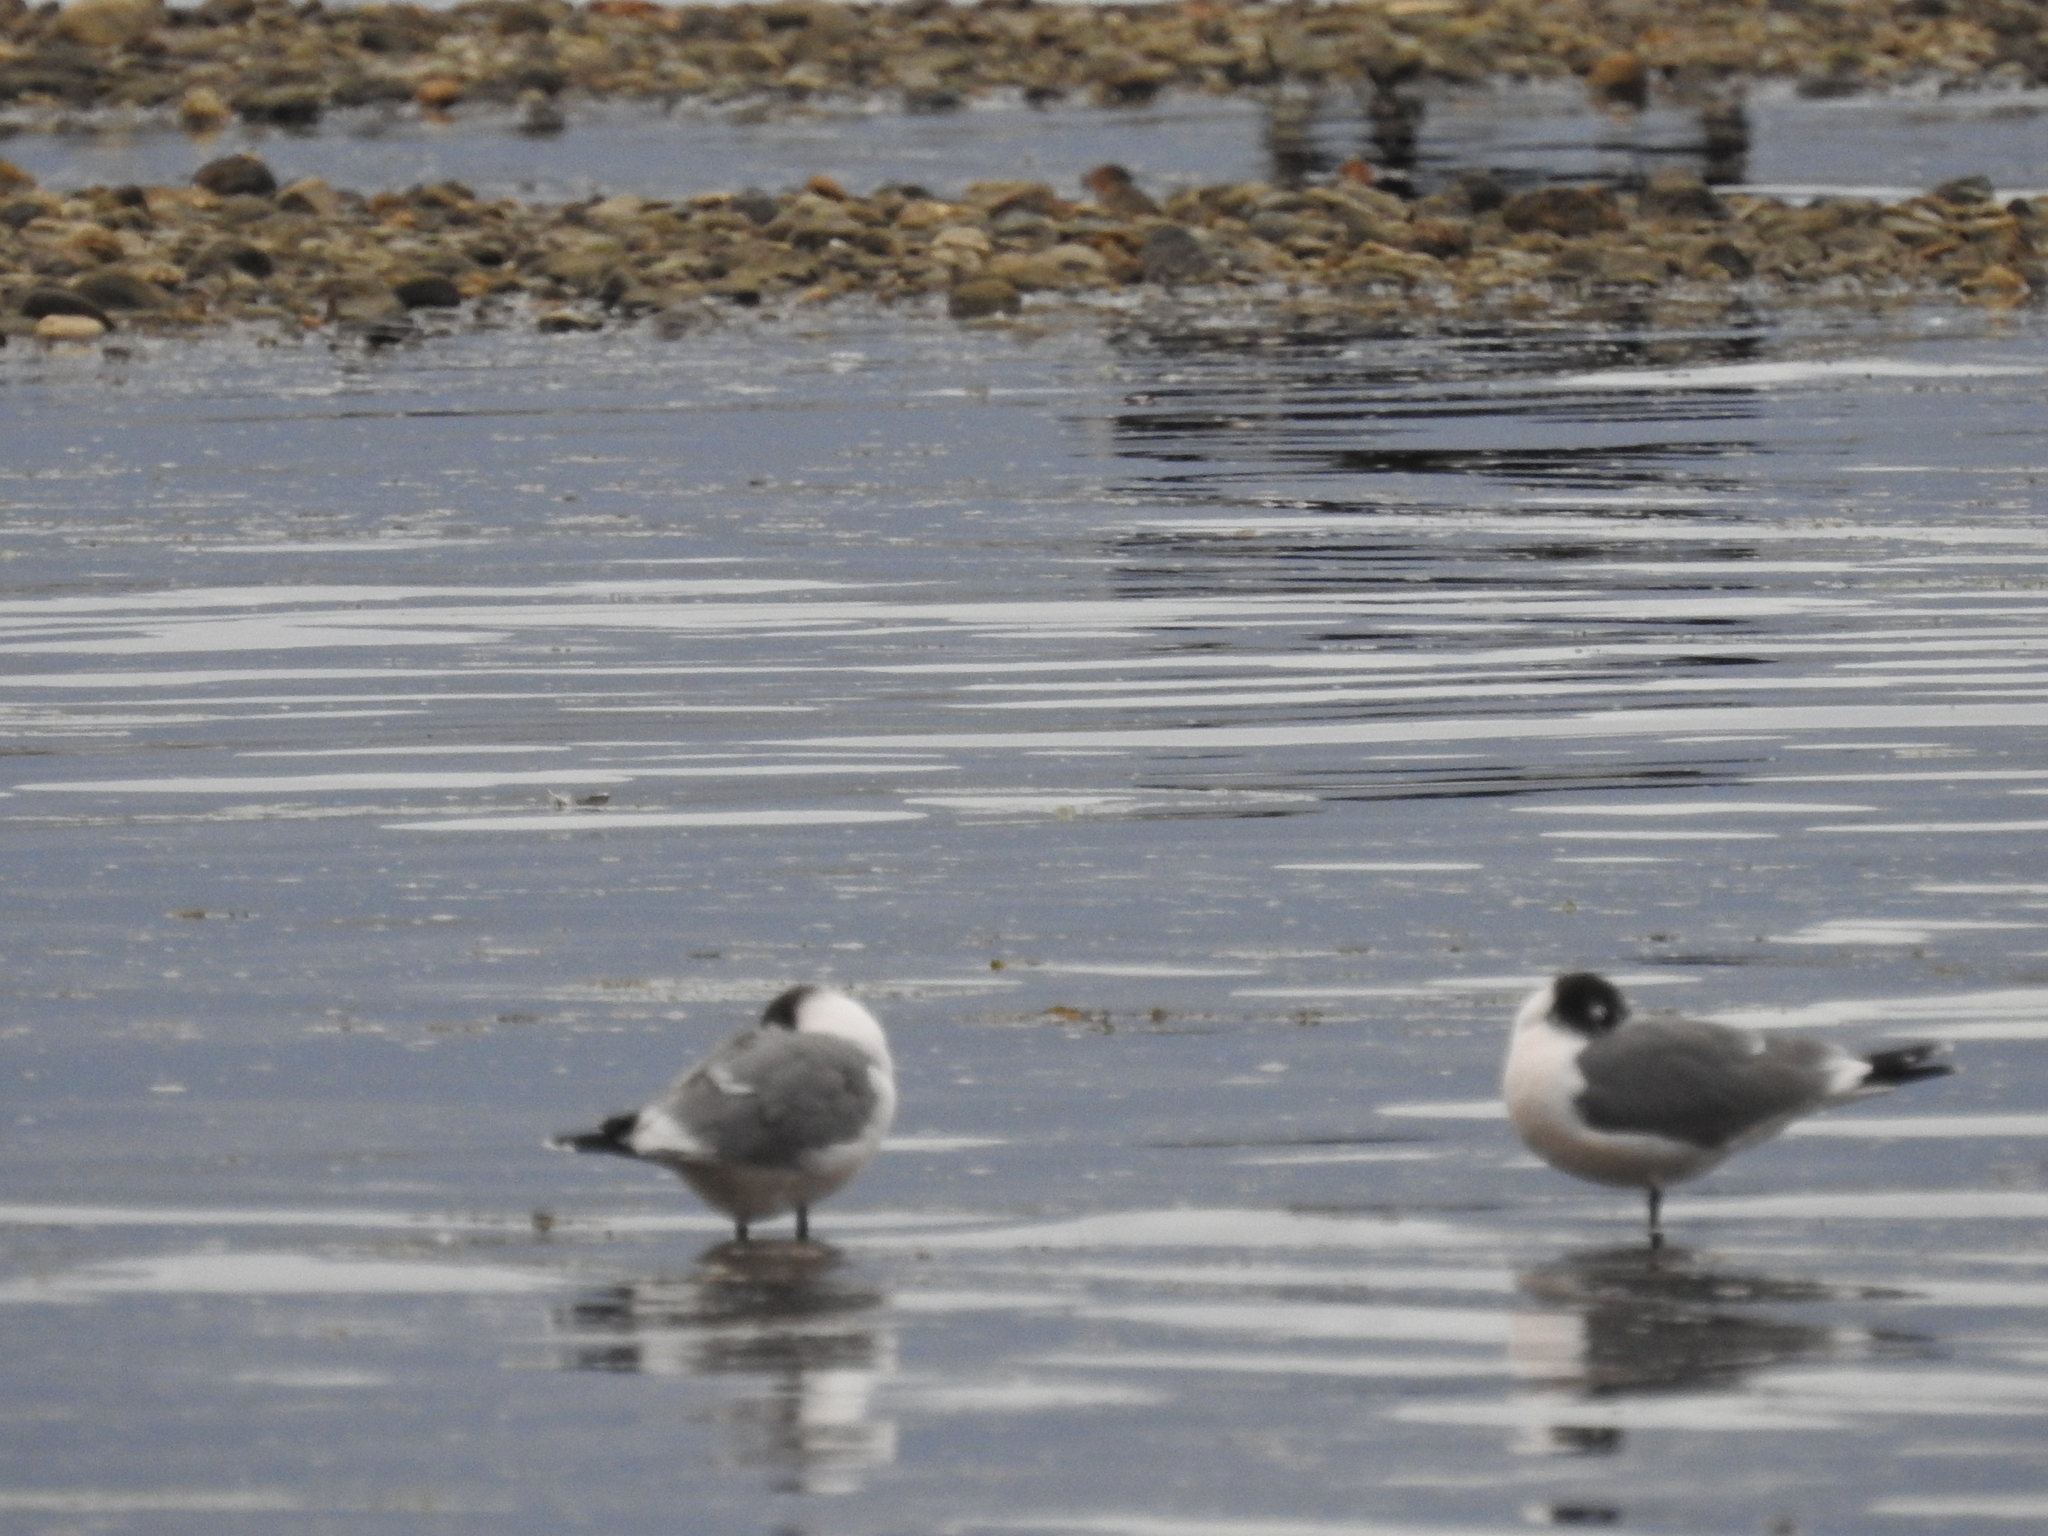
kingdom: Animalia
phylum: Chordata
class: Aves
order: Charadriiformes
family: Laridae
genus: Leucophaeus
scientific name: Leucophaeus pipixcan
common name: Franklin's gull
